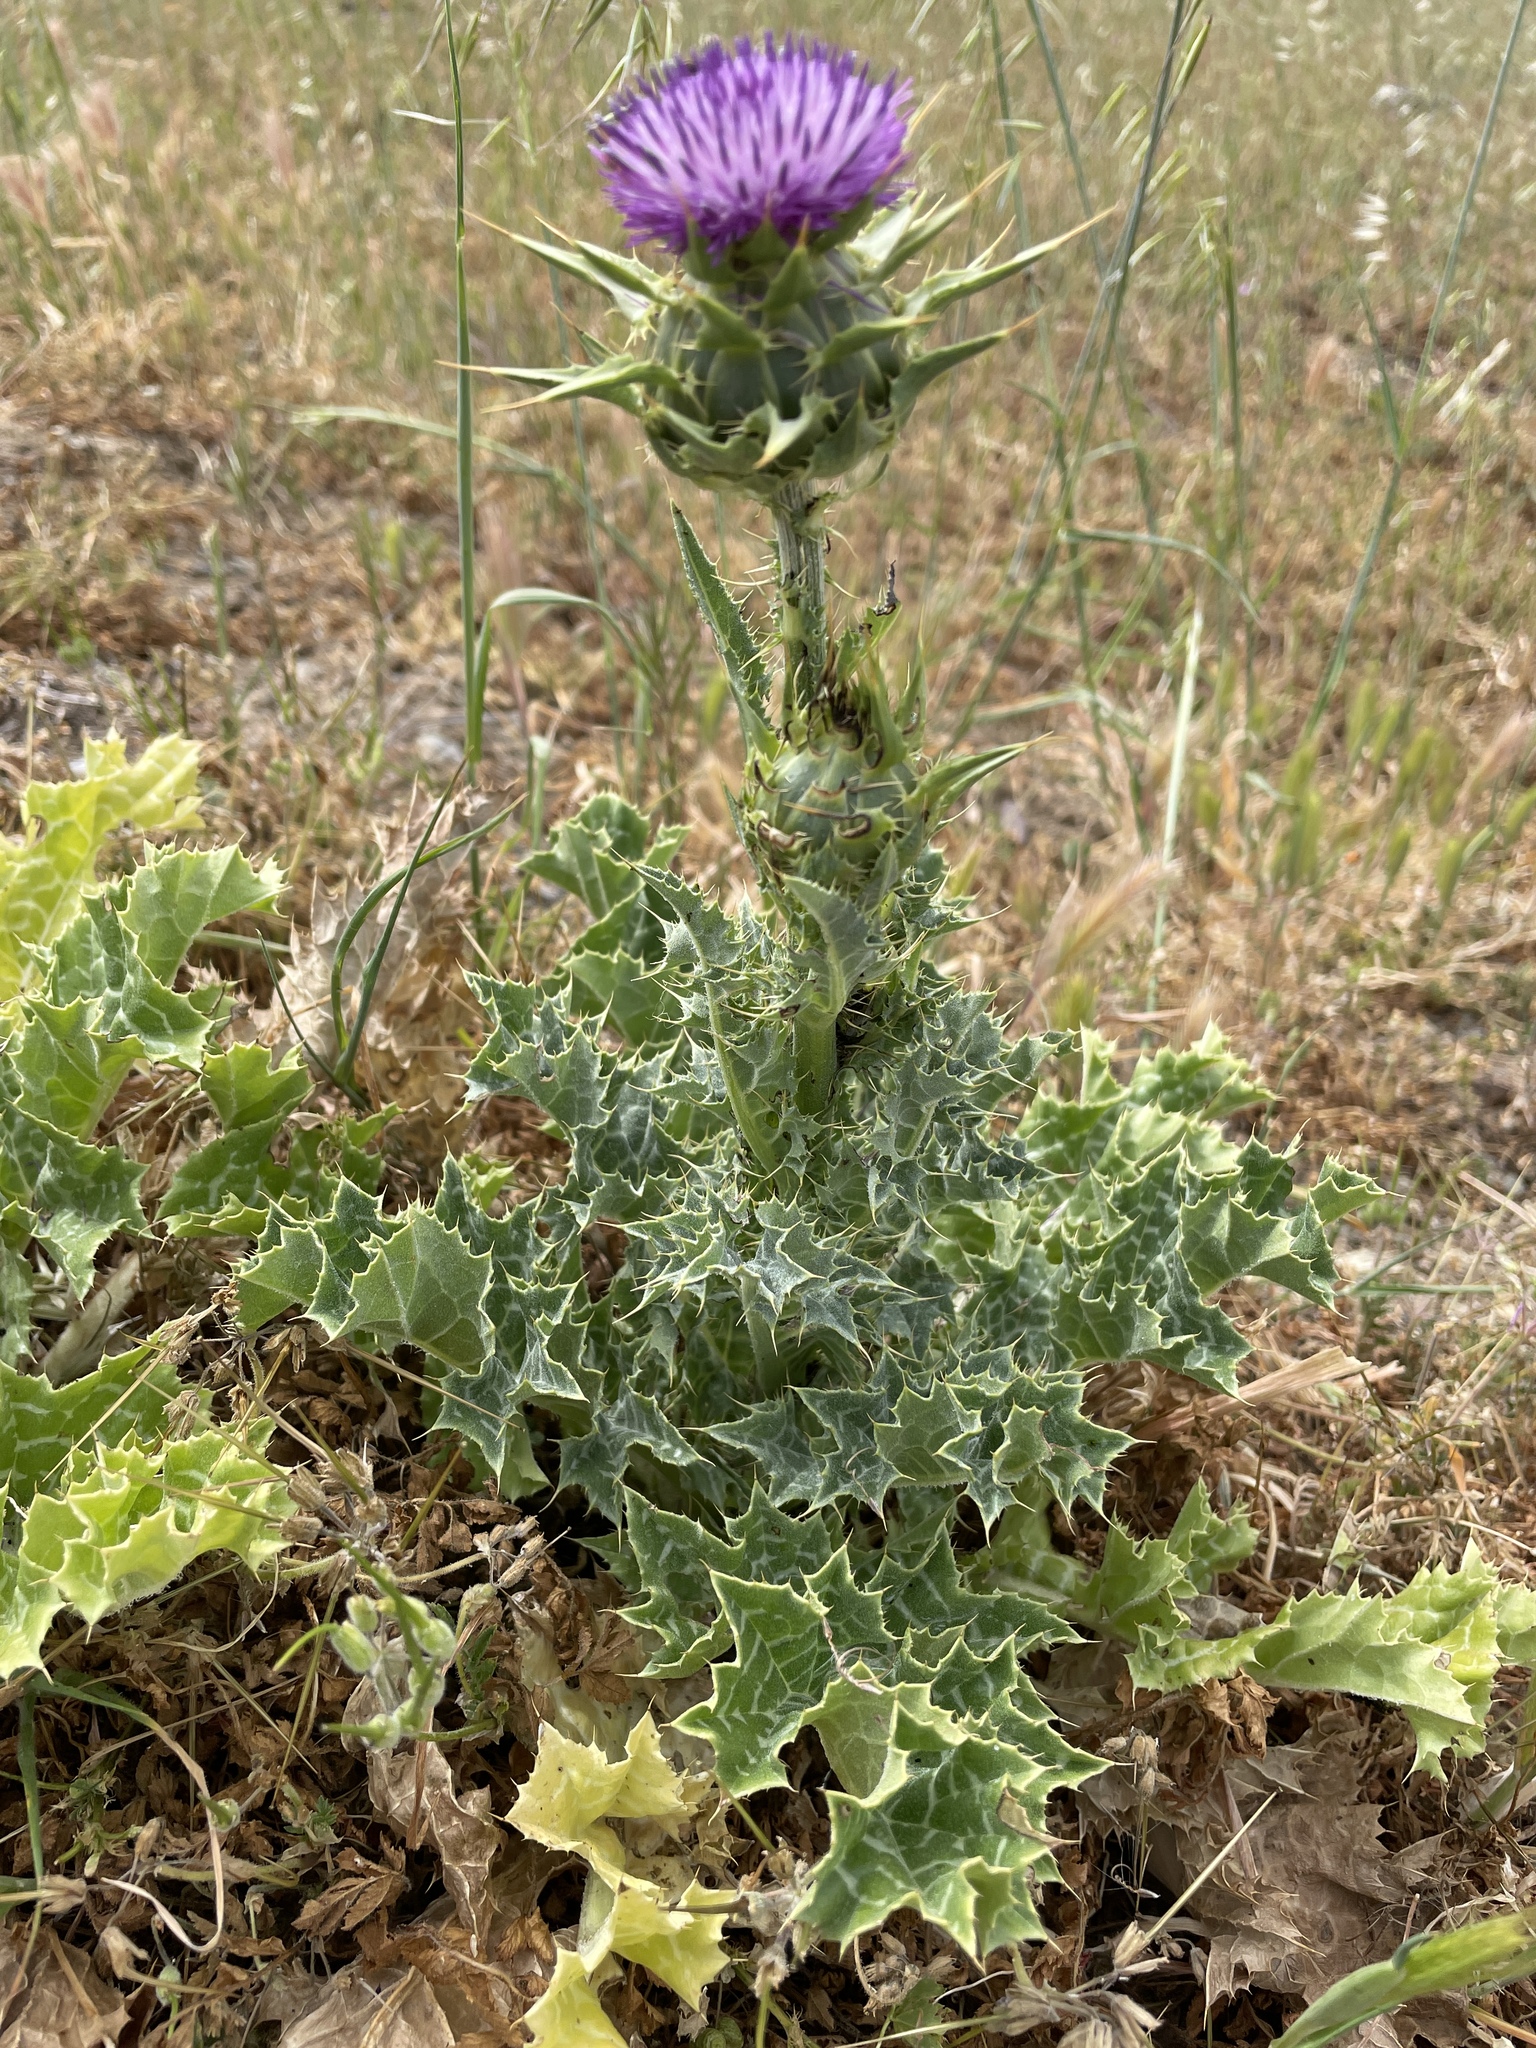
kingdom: Plantae
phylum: Tracheophyta
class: Magnoliopsida
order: Asterales
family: Asteraceae
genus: Silybum
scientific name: Silybum marianum
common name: Milk thistle
